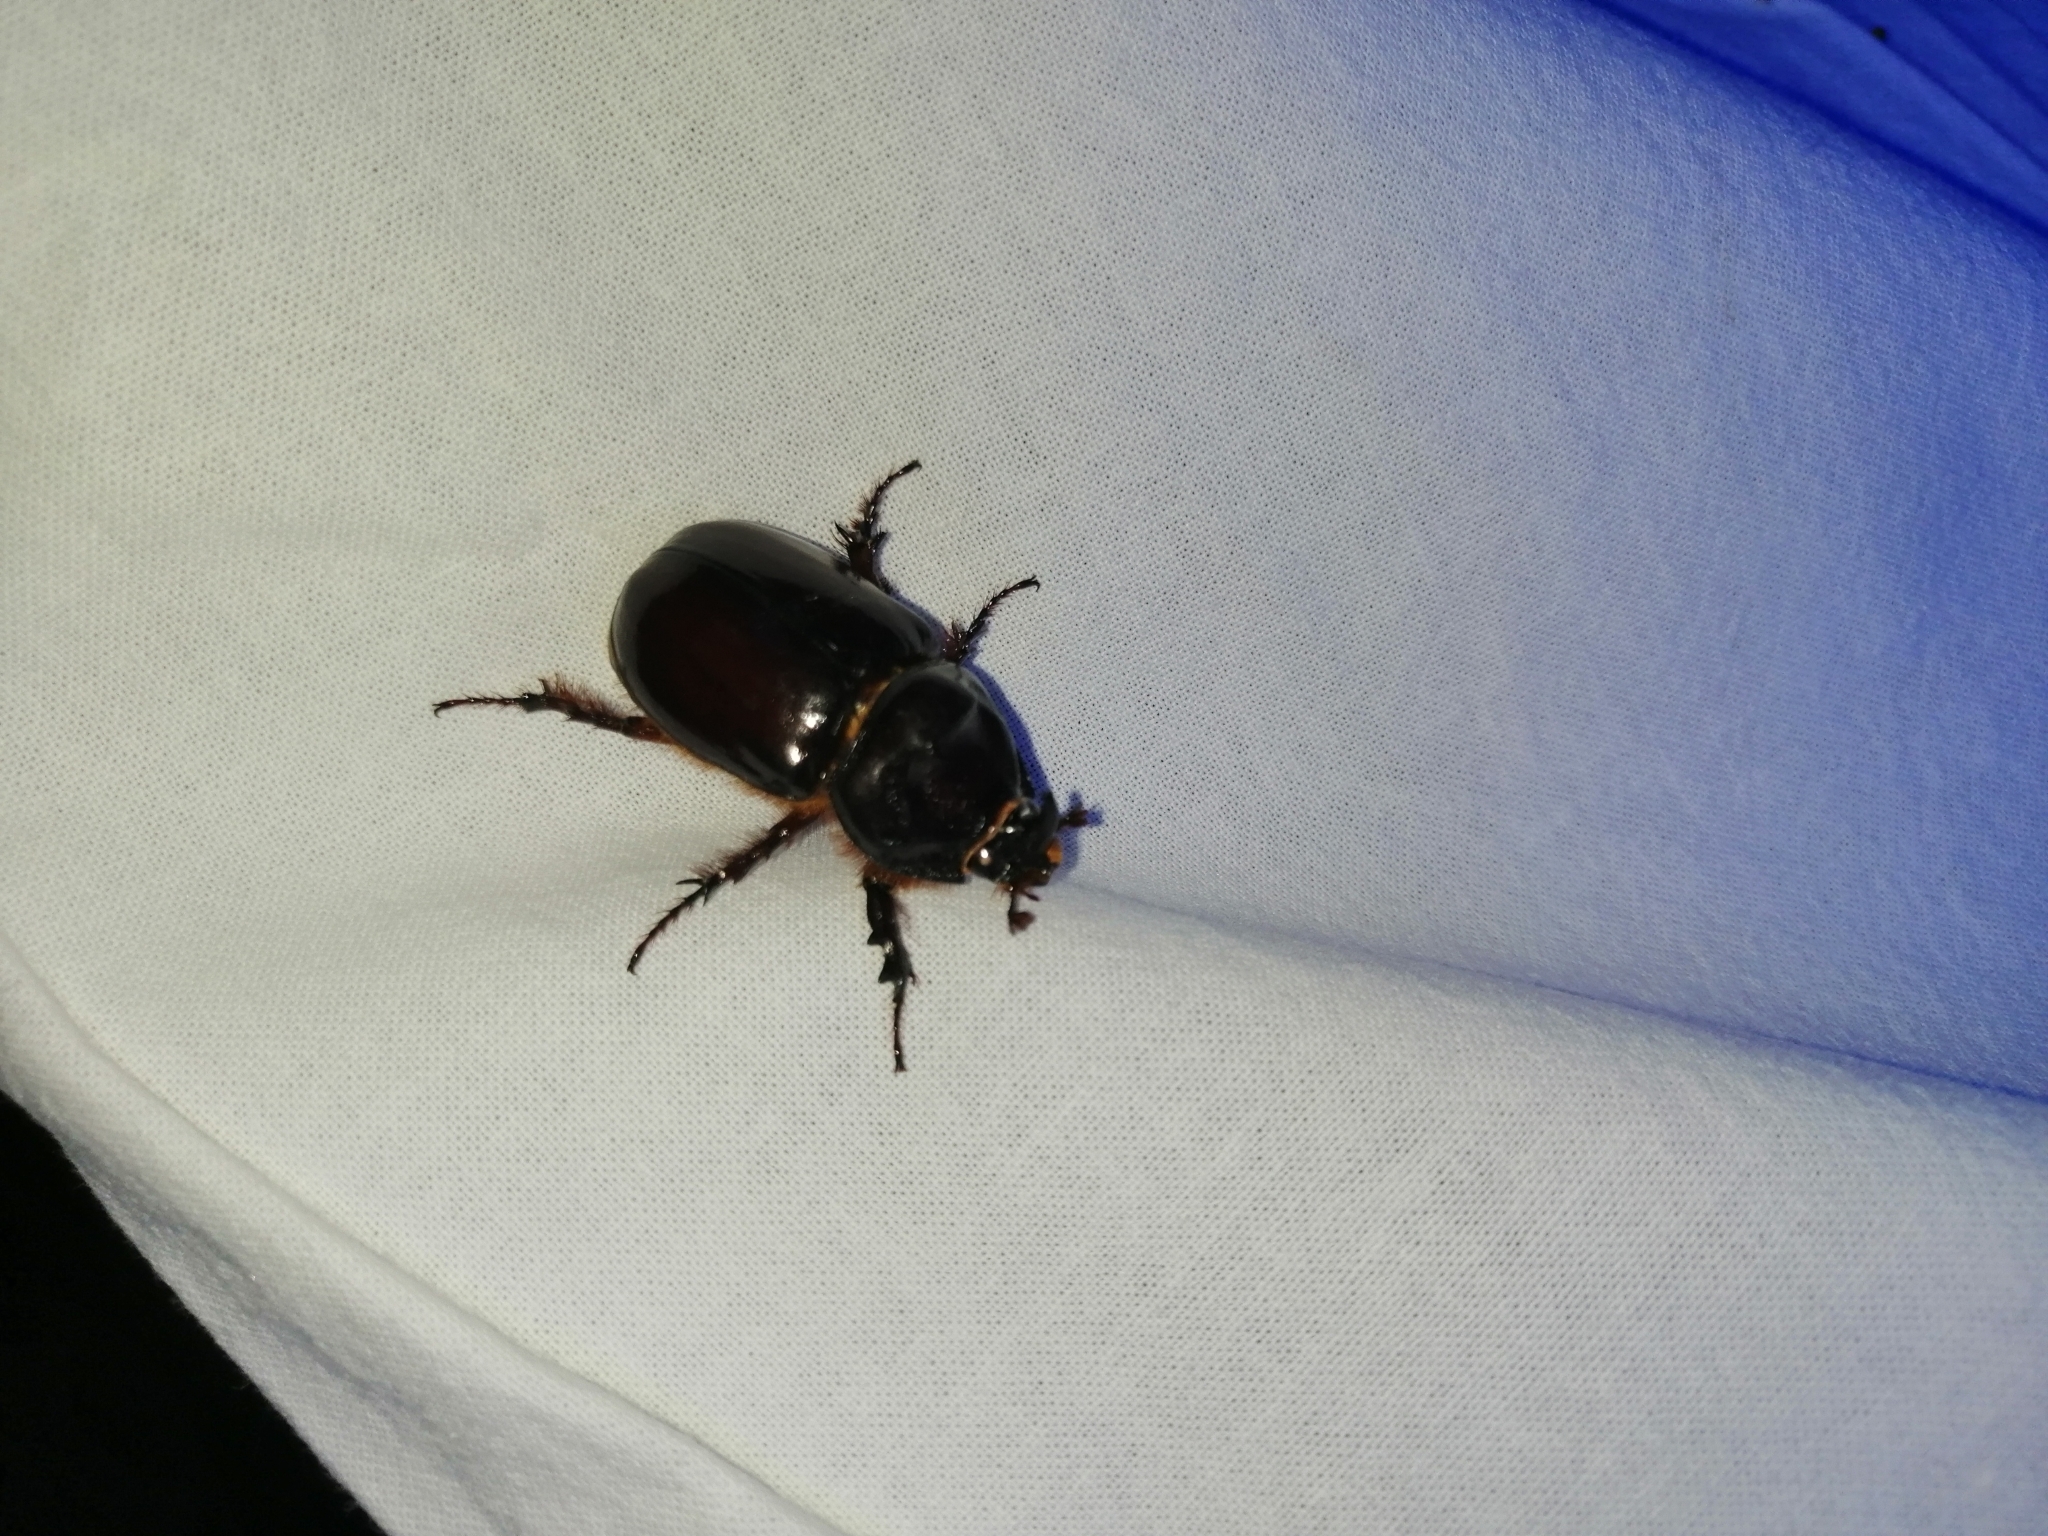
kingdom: Animalia
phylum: Arthropoda
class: Insecta
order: Coleoptera
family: Scarabaeidae
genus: Oryctes
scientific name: Oryctes nasicornis
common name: European rhinoceros beetle
